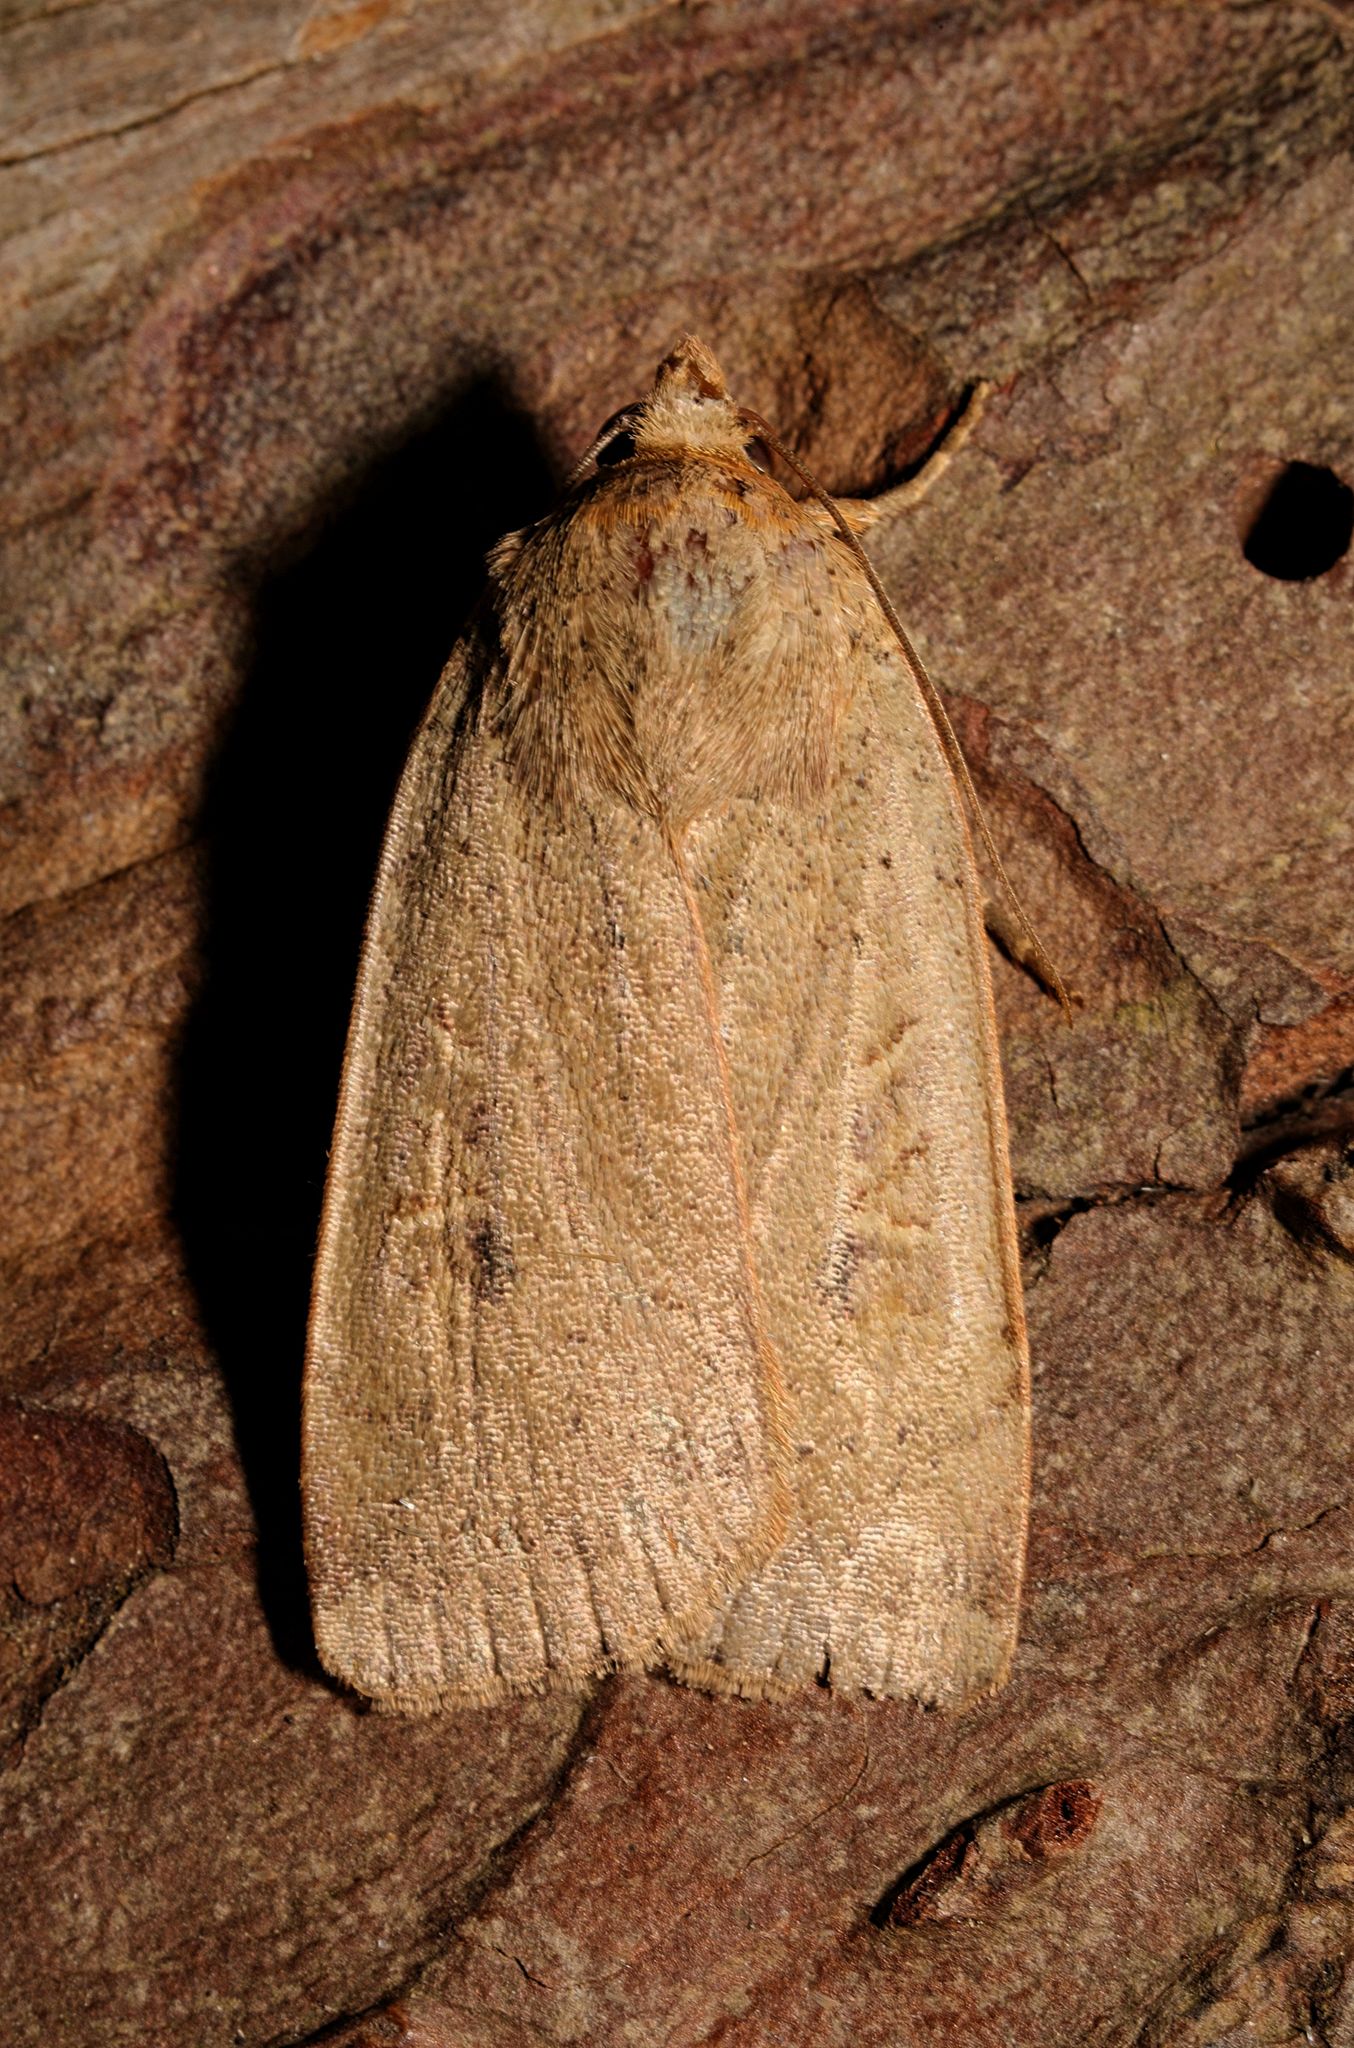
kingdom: Animalia
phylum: Arthropoda
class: Insecta
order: Lepidoptera
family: Noctuidae
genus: Noctua
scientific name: Noctua comes
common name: Lesser yellow underwing
